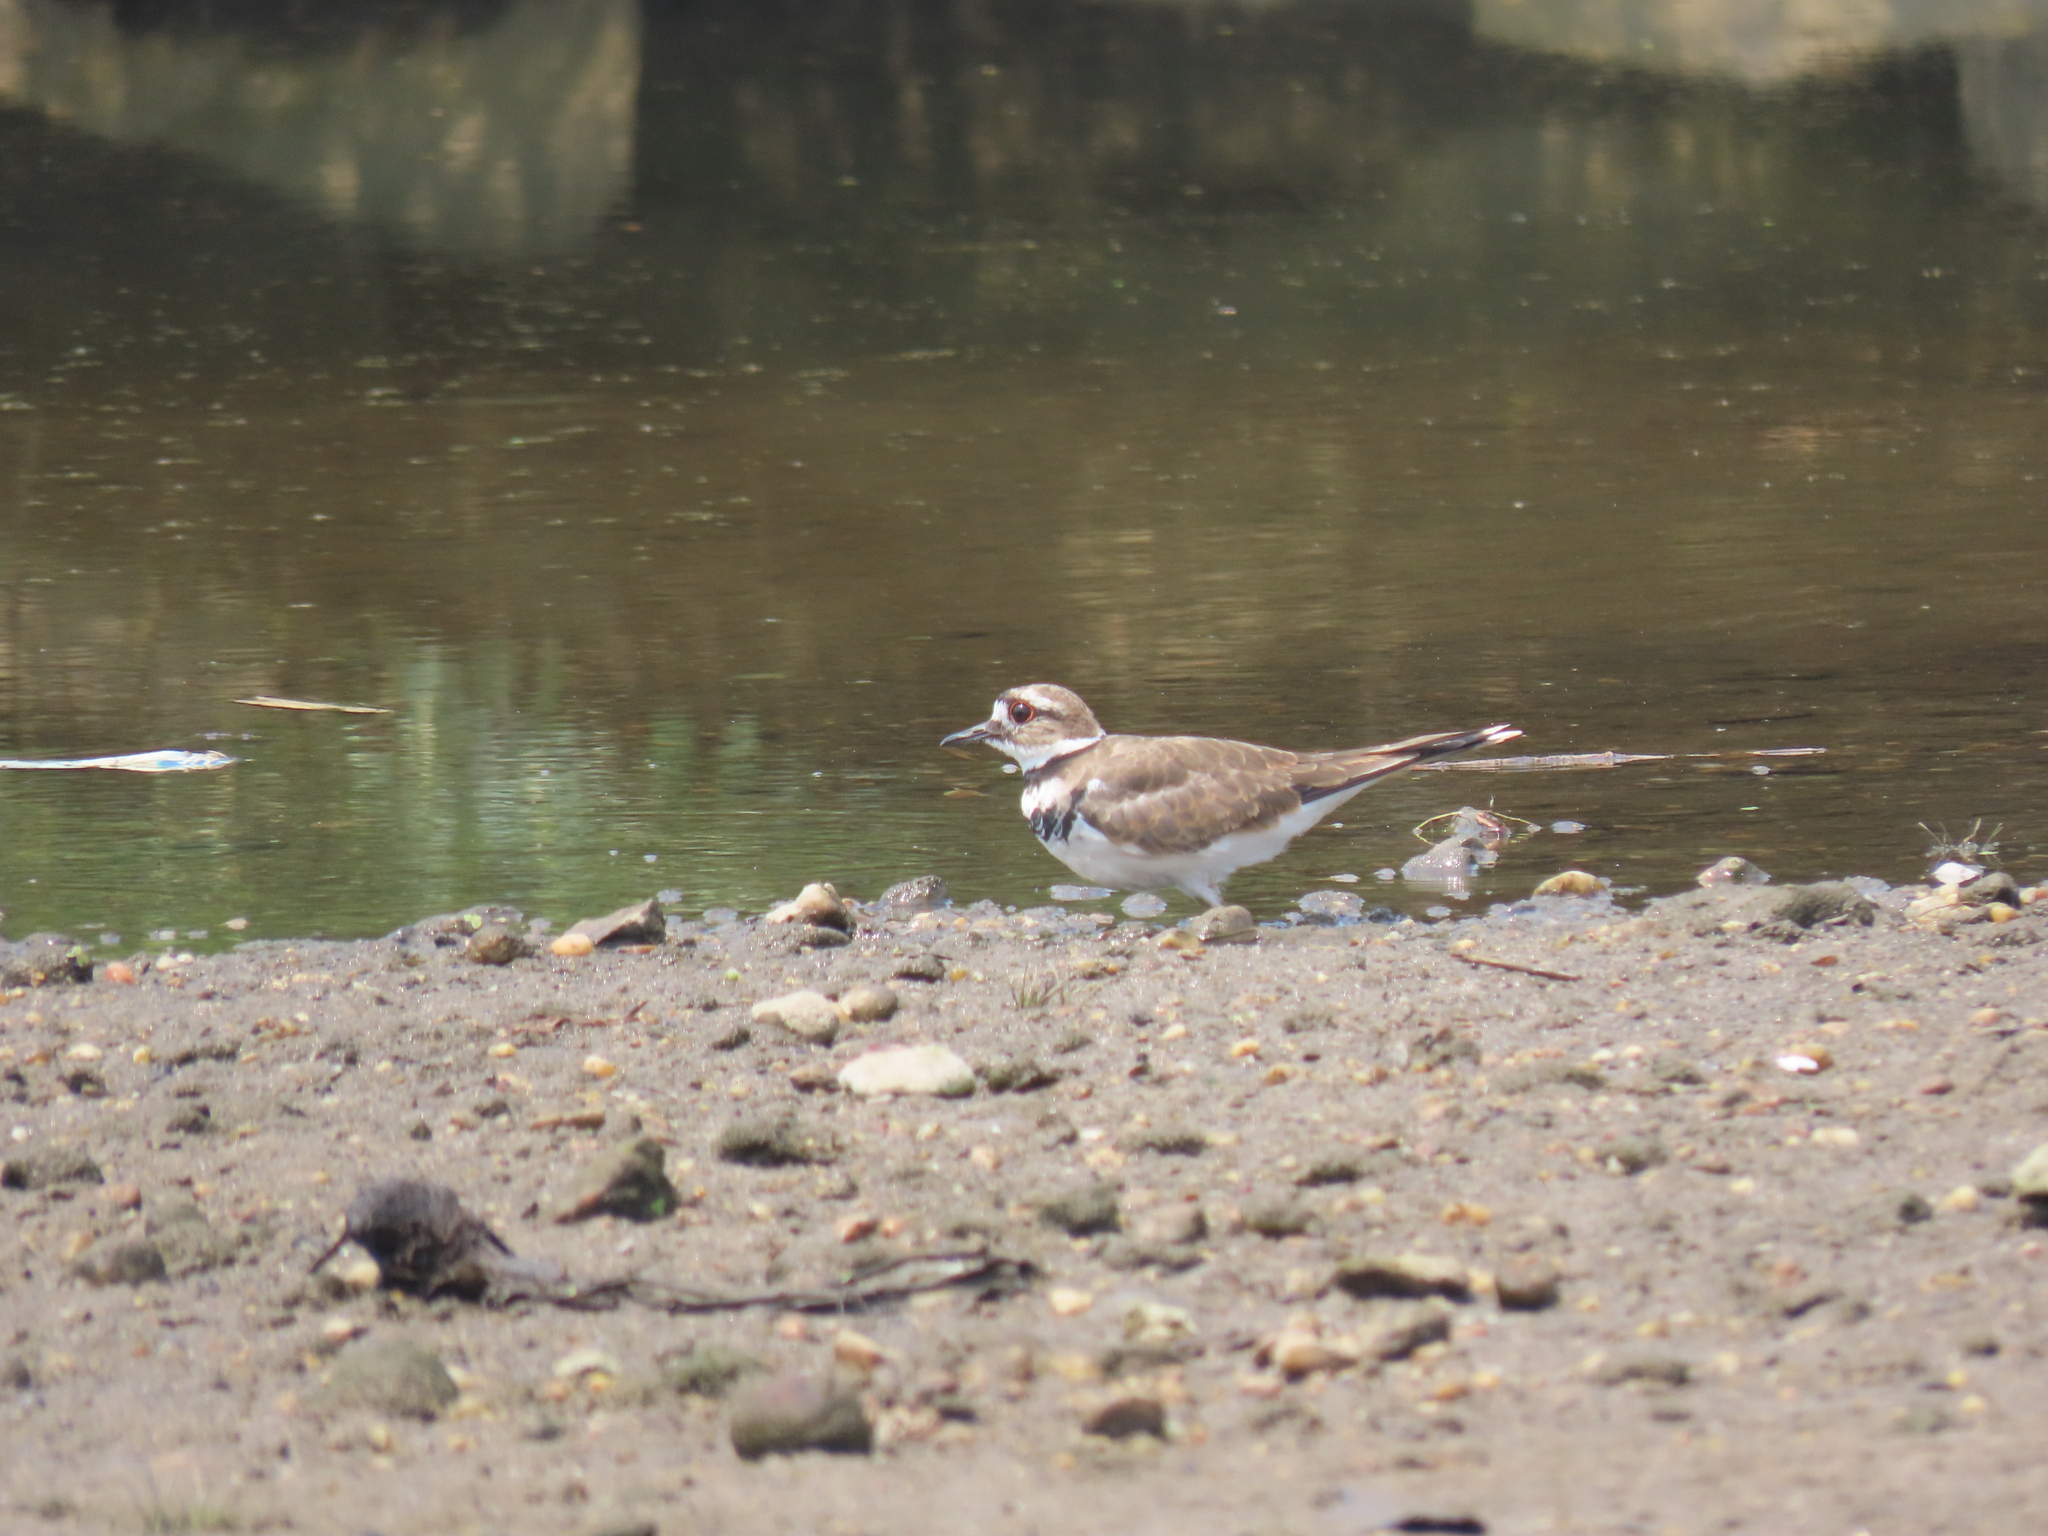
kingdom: Animalia
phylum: Chordata
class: Aves
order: Charadriiformes
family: Charadriidae
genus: Charadrius
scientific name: Charadrius vociferus
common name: Killdeer
